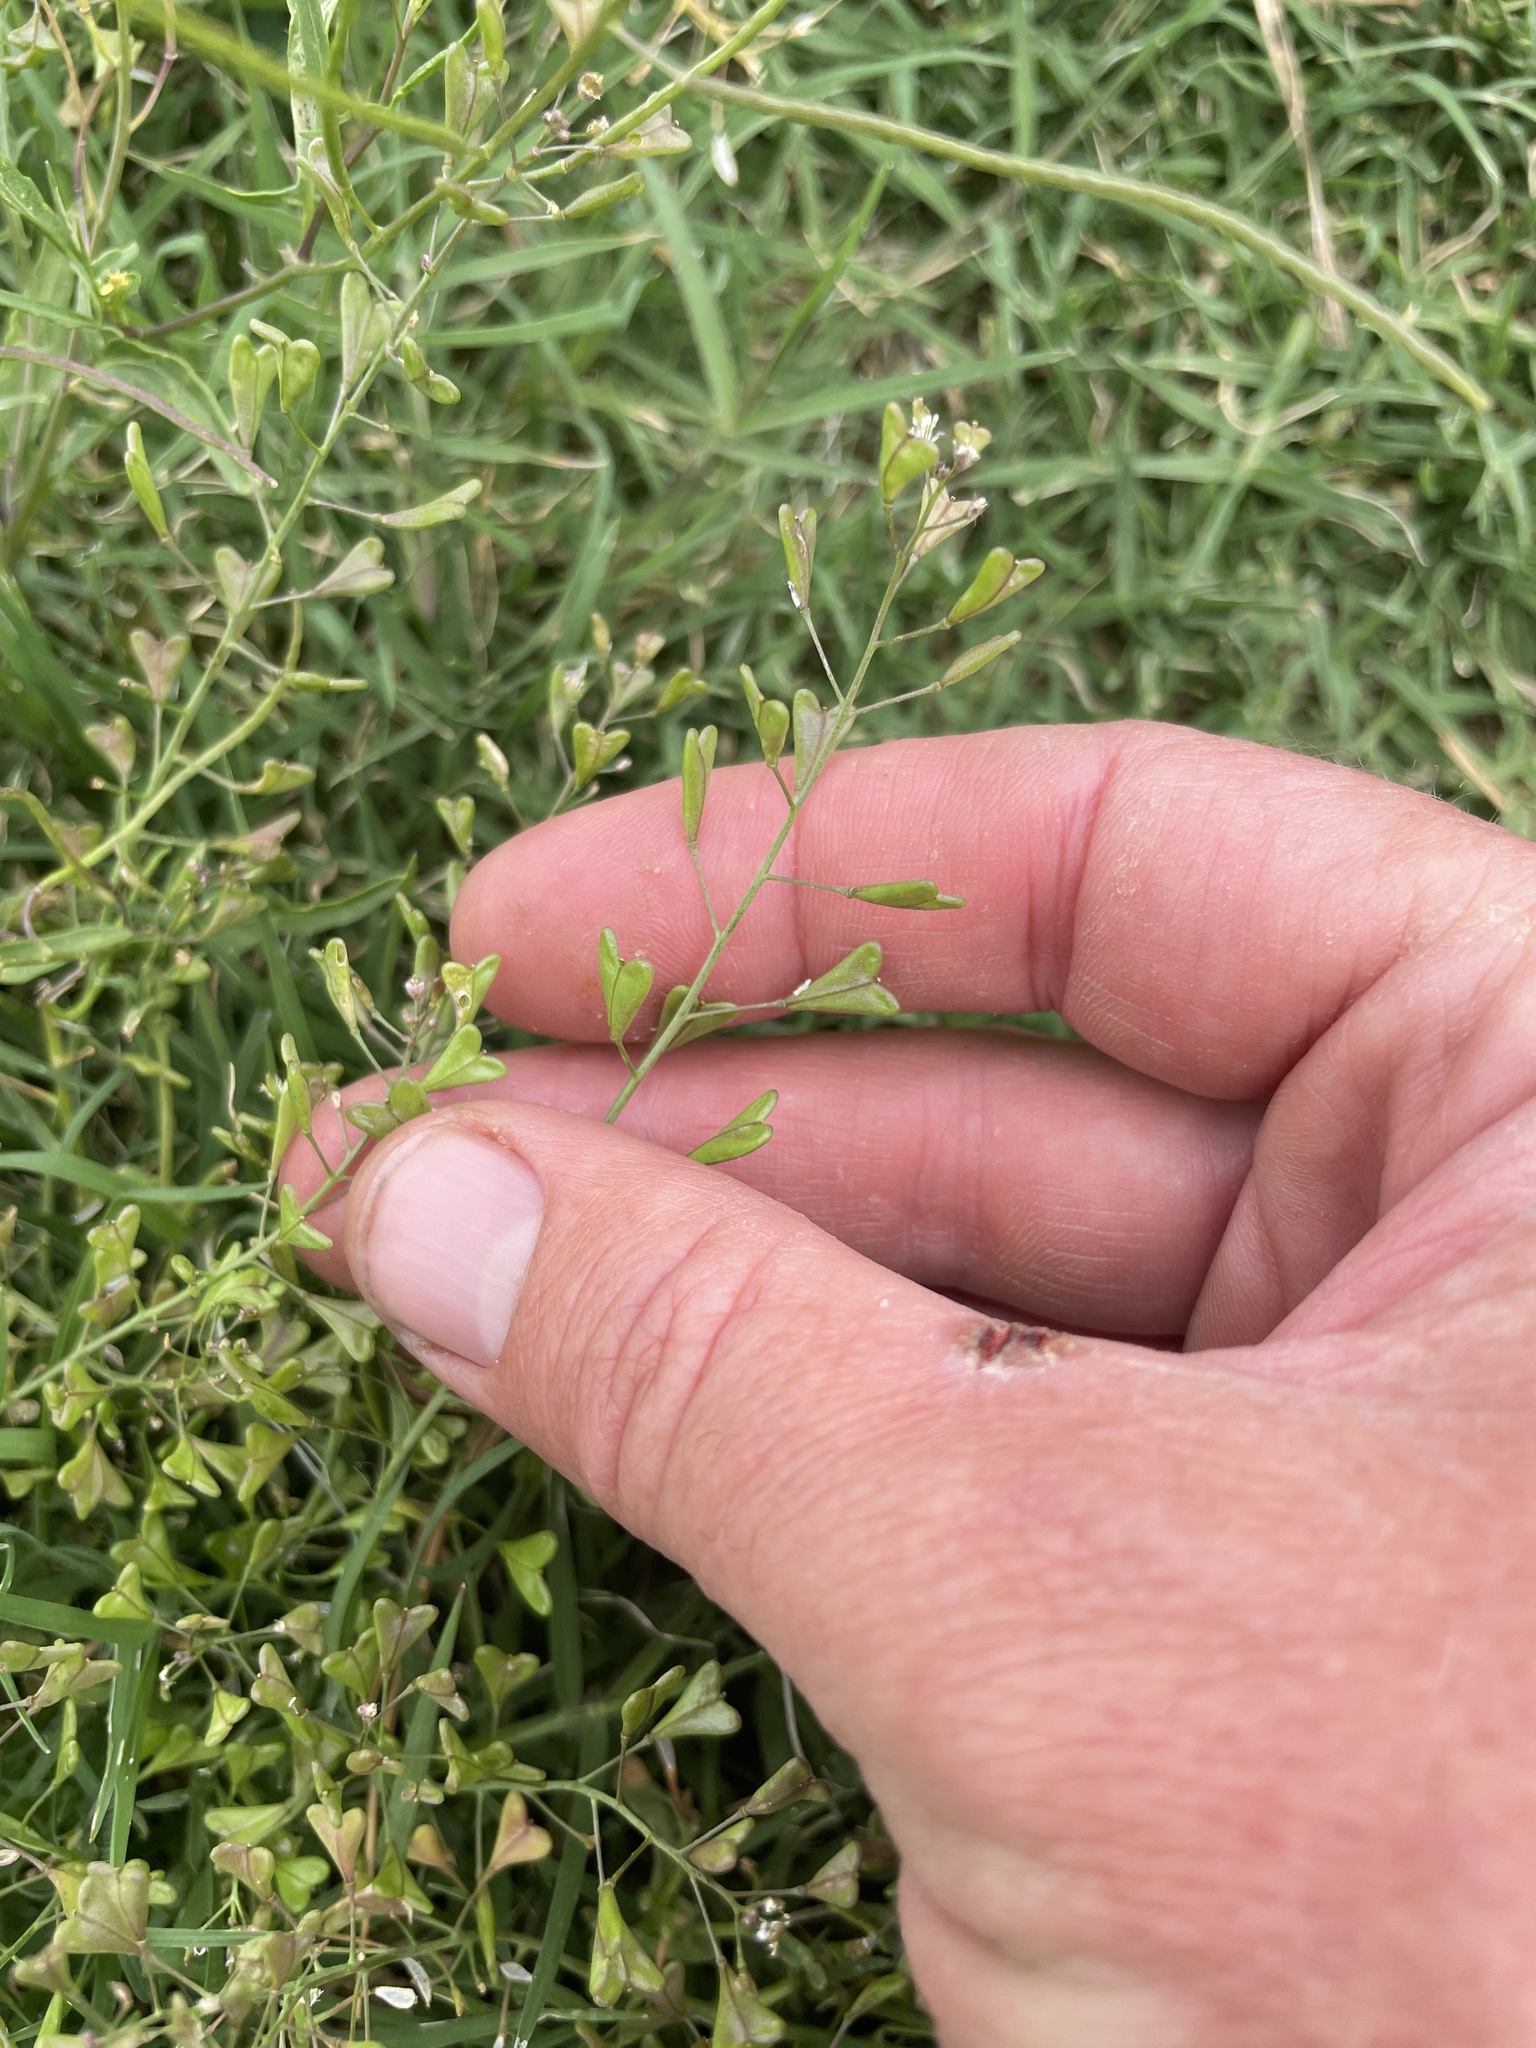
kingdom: Plantae
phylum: Tracheophyta
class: Magnoliopsida
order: Brassicales
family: Brassicaceae
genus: Capsella
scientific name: Capsella bursa-pastoris
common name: Shepherd's purse
